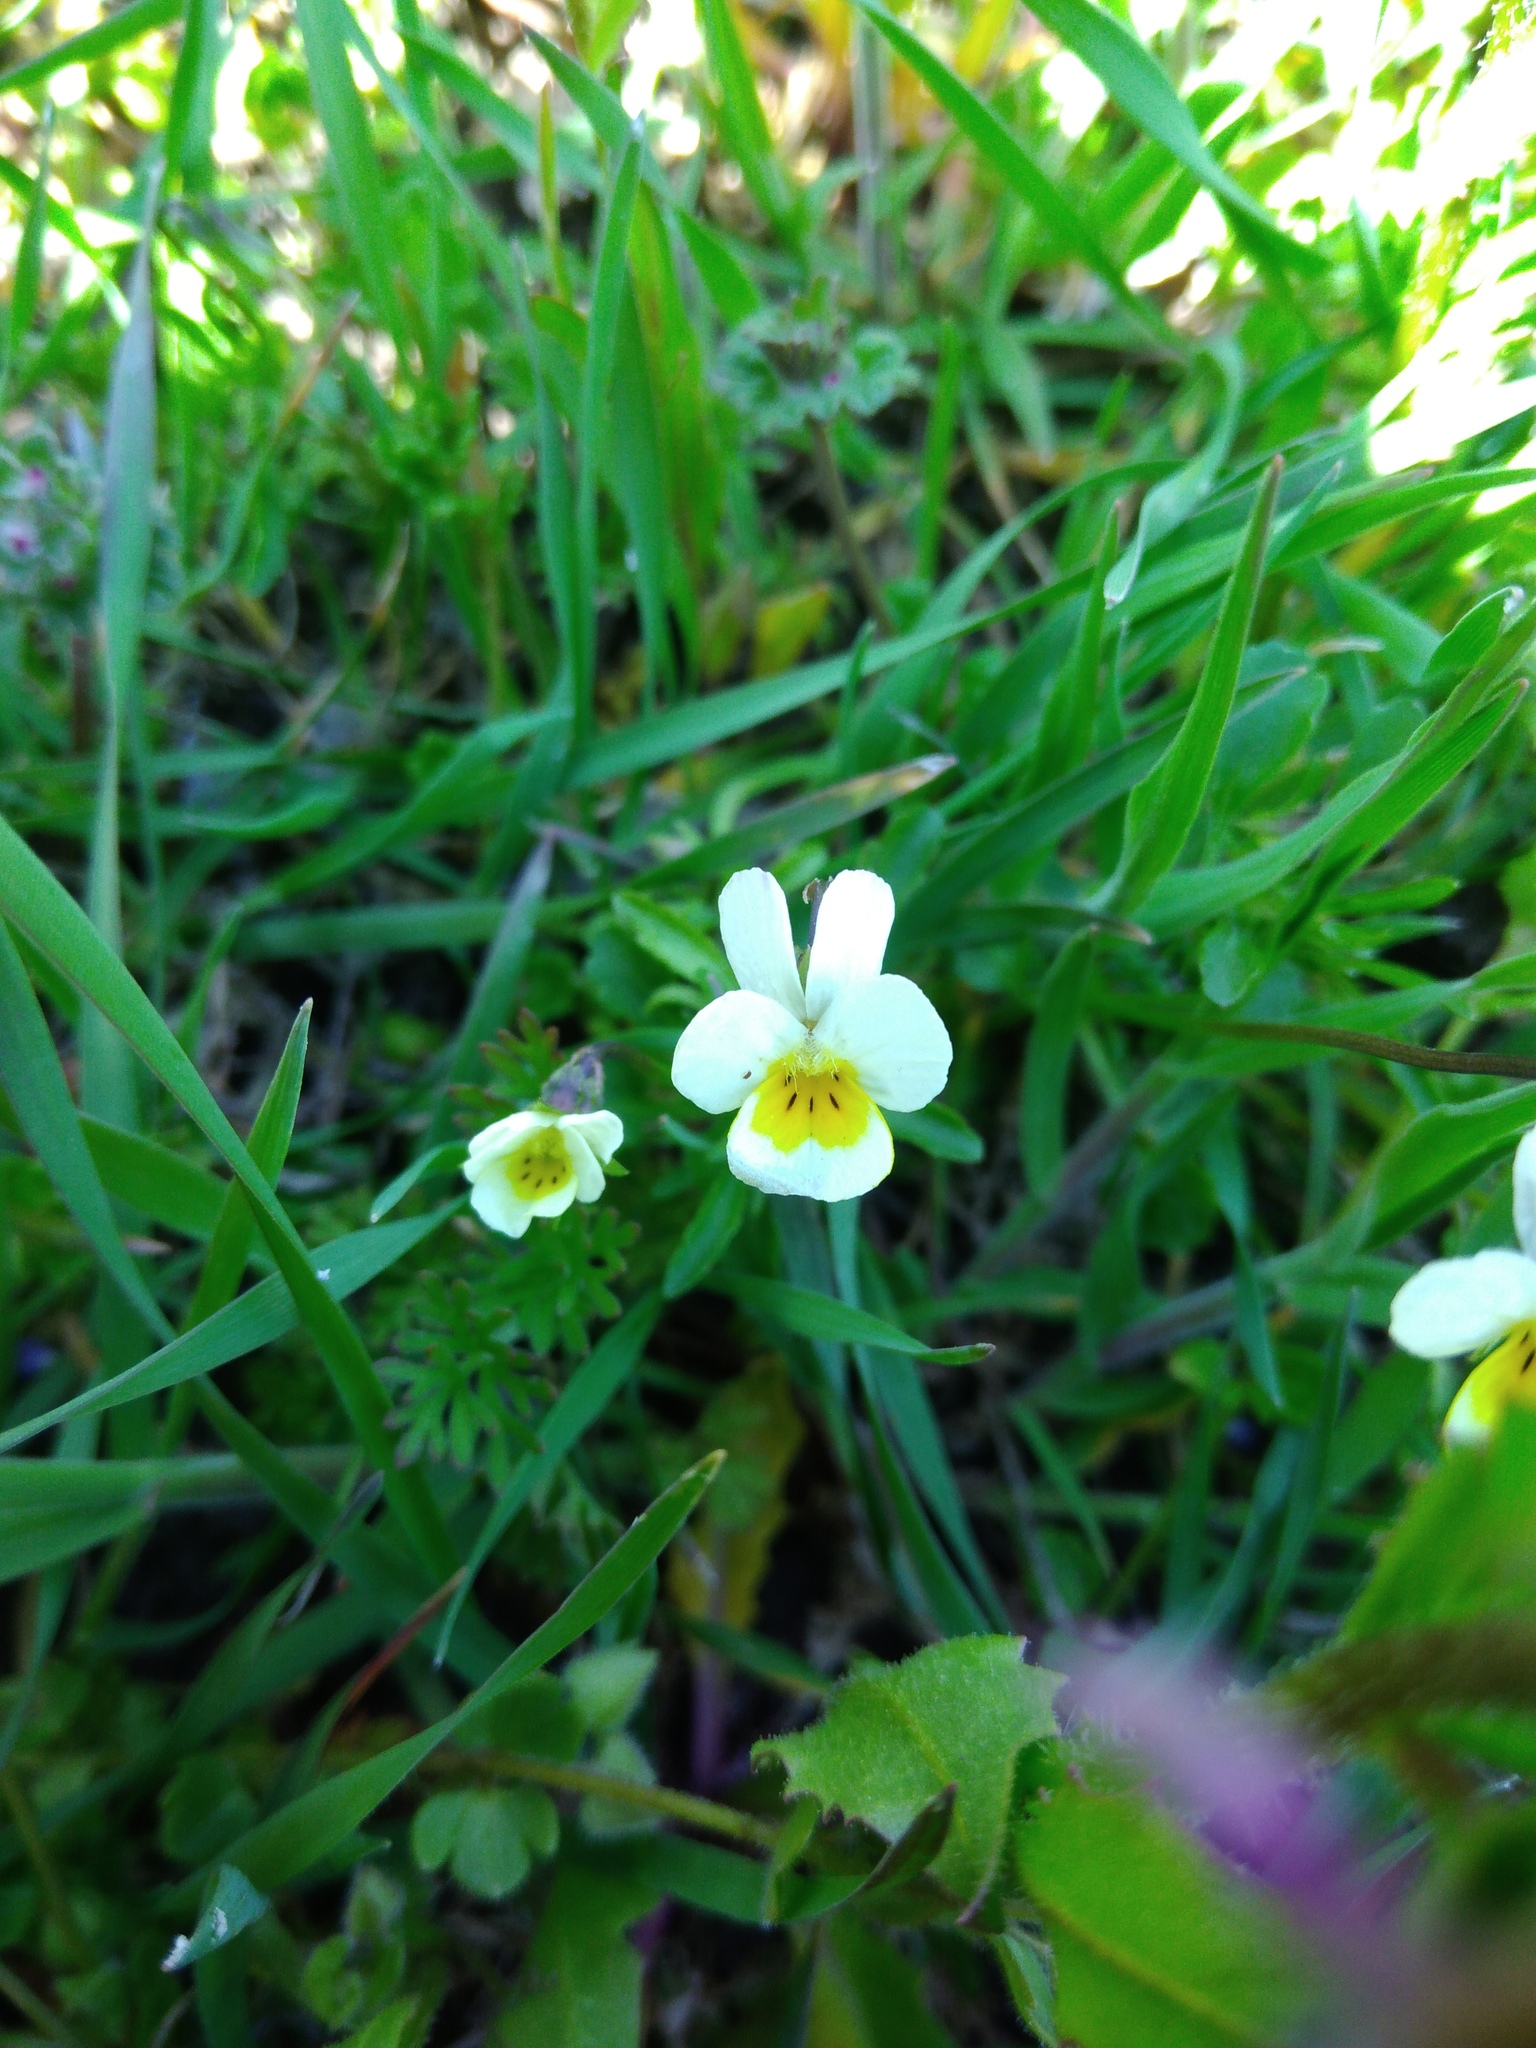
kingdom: Plantae
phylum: Tracheophyta
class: Magnoliopsida
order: Malpighiales
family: Violaceae
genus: Viola
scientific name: Viola arvensis
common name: Field pansy
